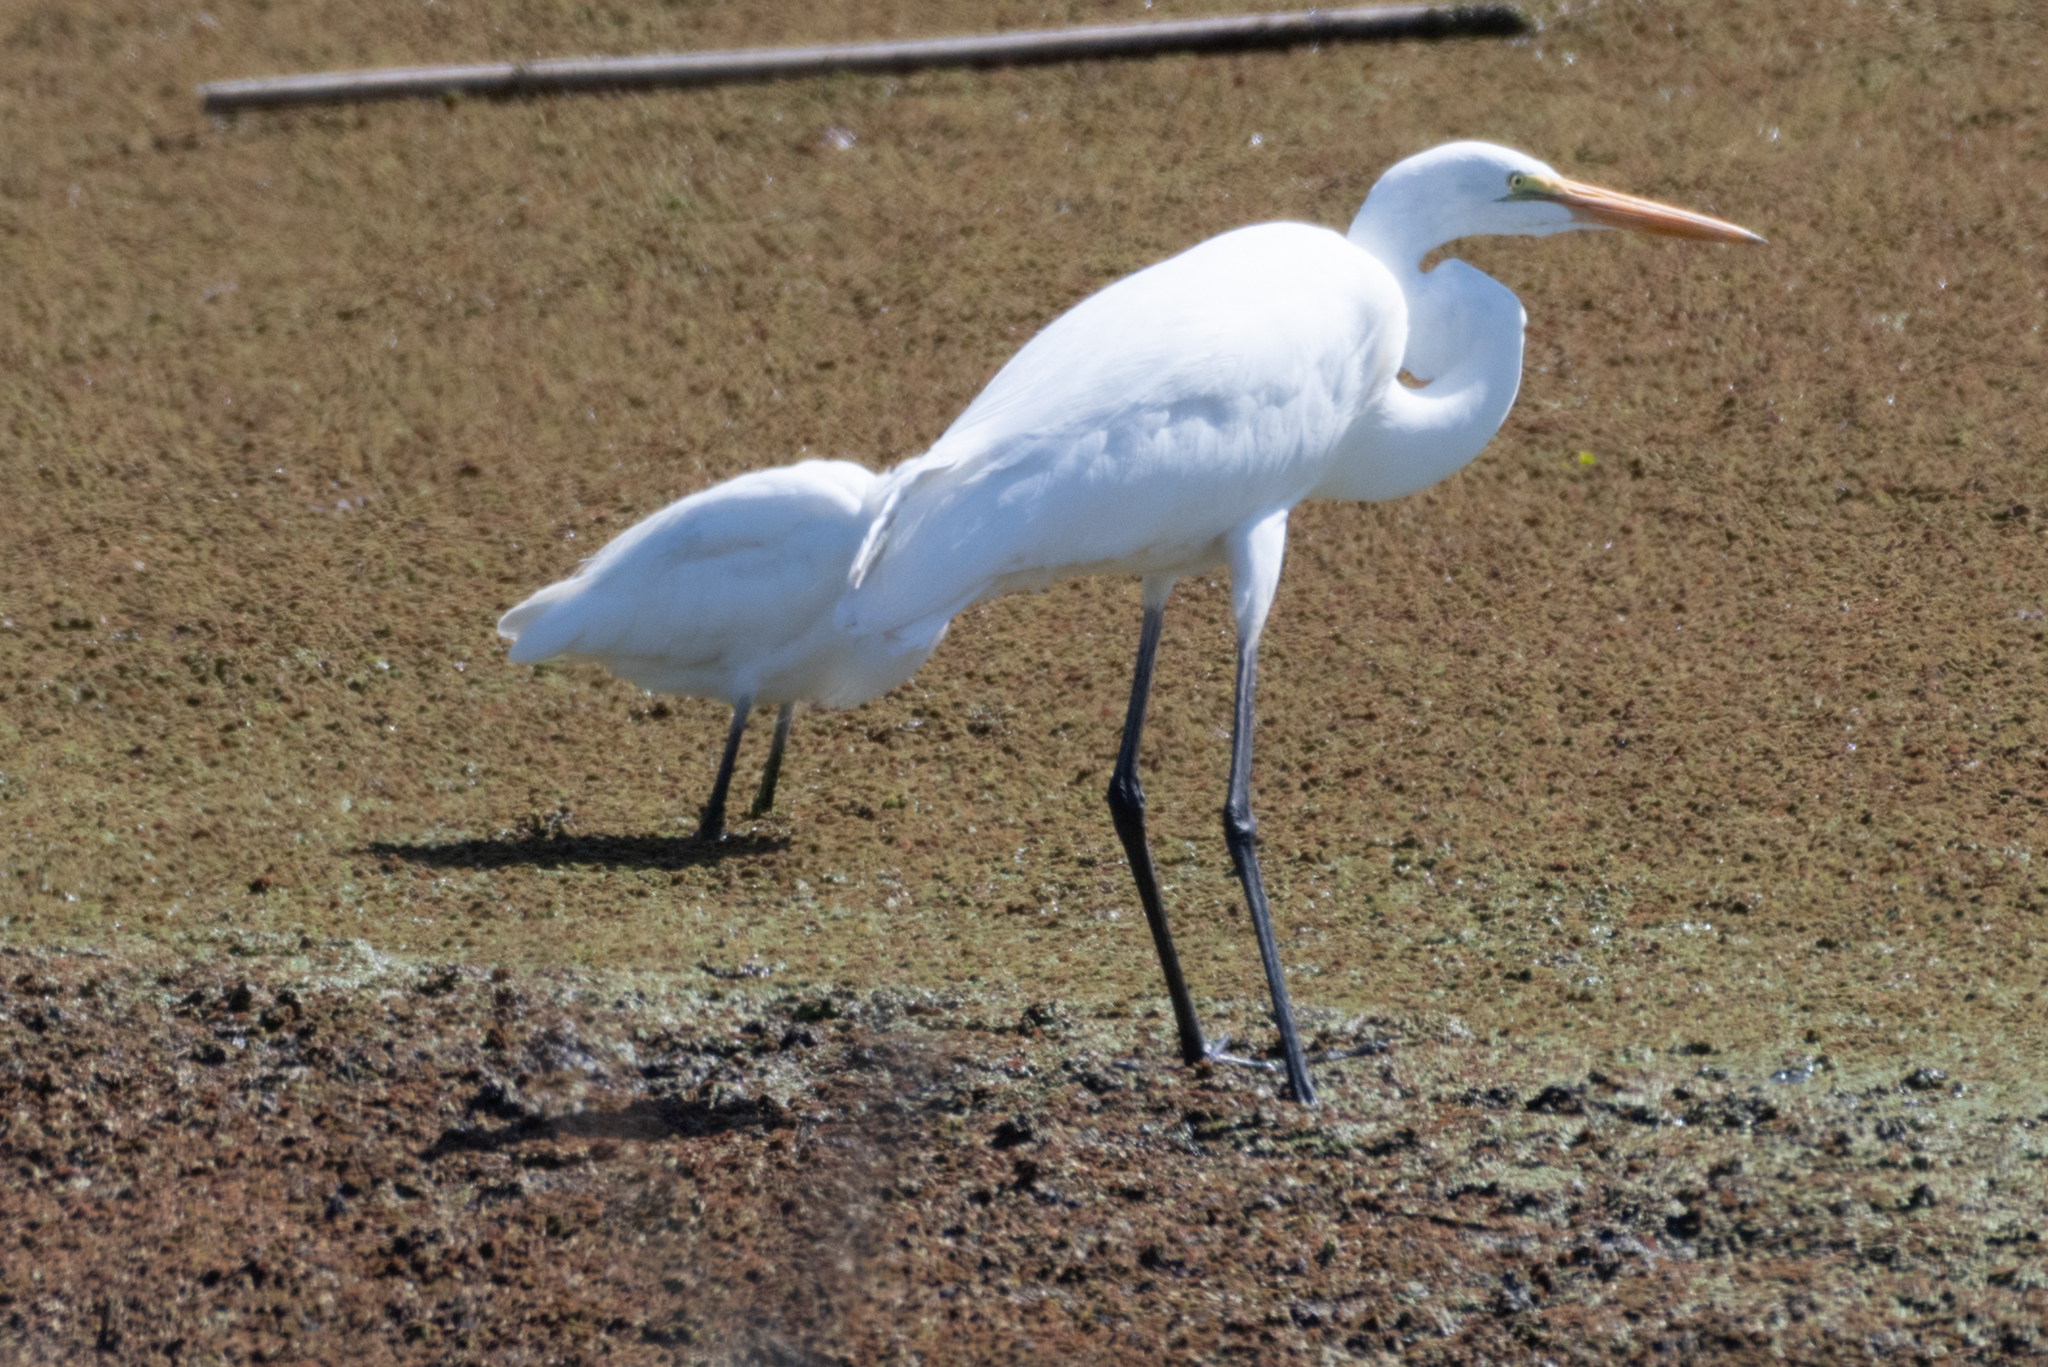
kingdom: Animalia
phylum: Chordata
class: Aves
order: Pelecaniformes
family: Ardeidae
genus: Ardea
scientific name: Ardea alba
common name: Great egret
